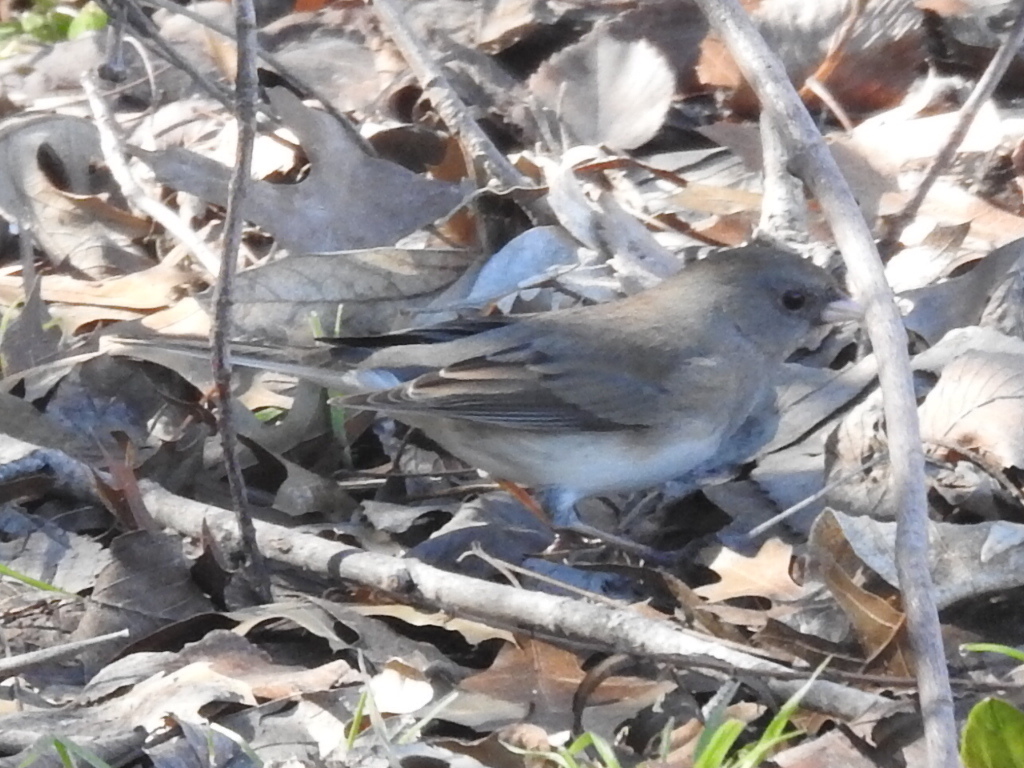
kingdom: Animalia
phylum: Chordata
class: Aves
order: Passeriformes
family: Passerellidae
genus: Junco
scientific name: Junco hyemalis
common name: Dark-eyed junco
